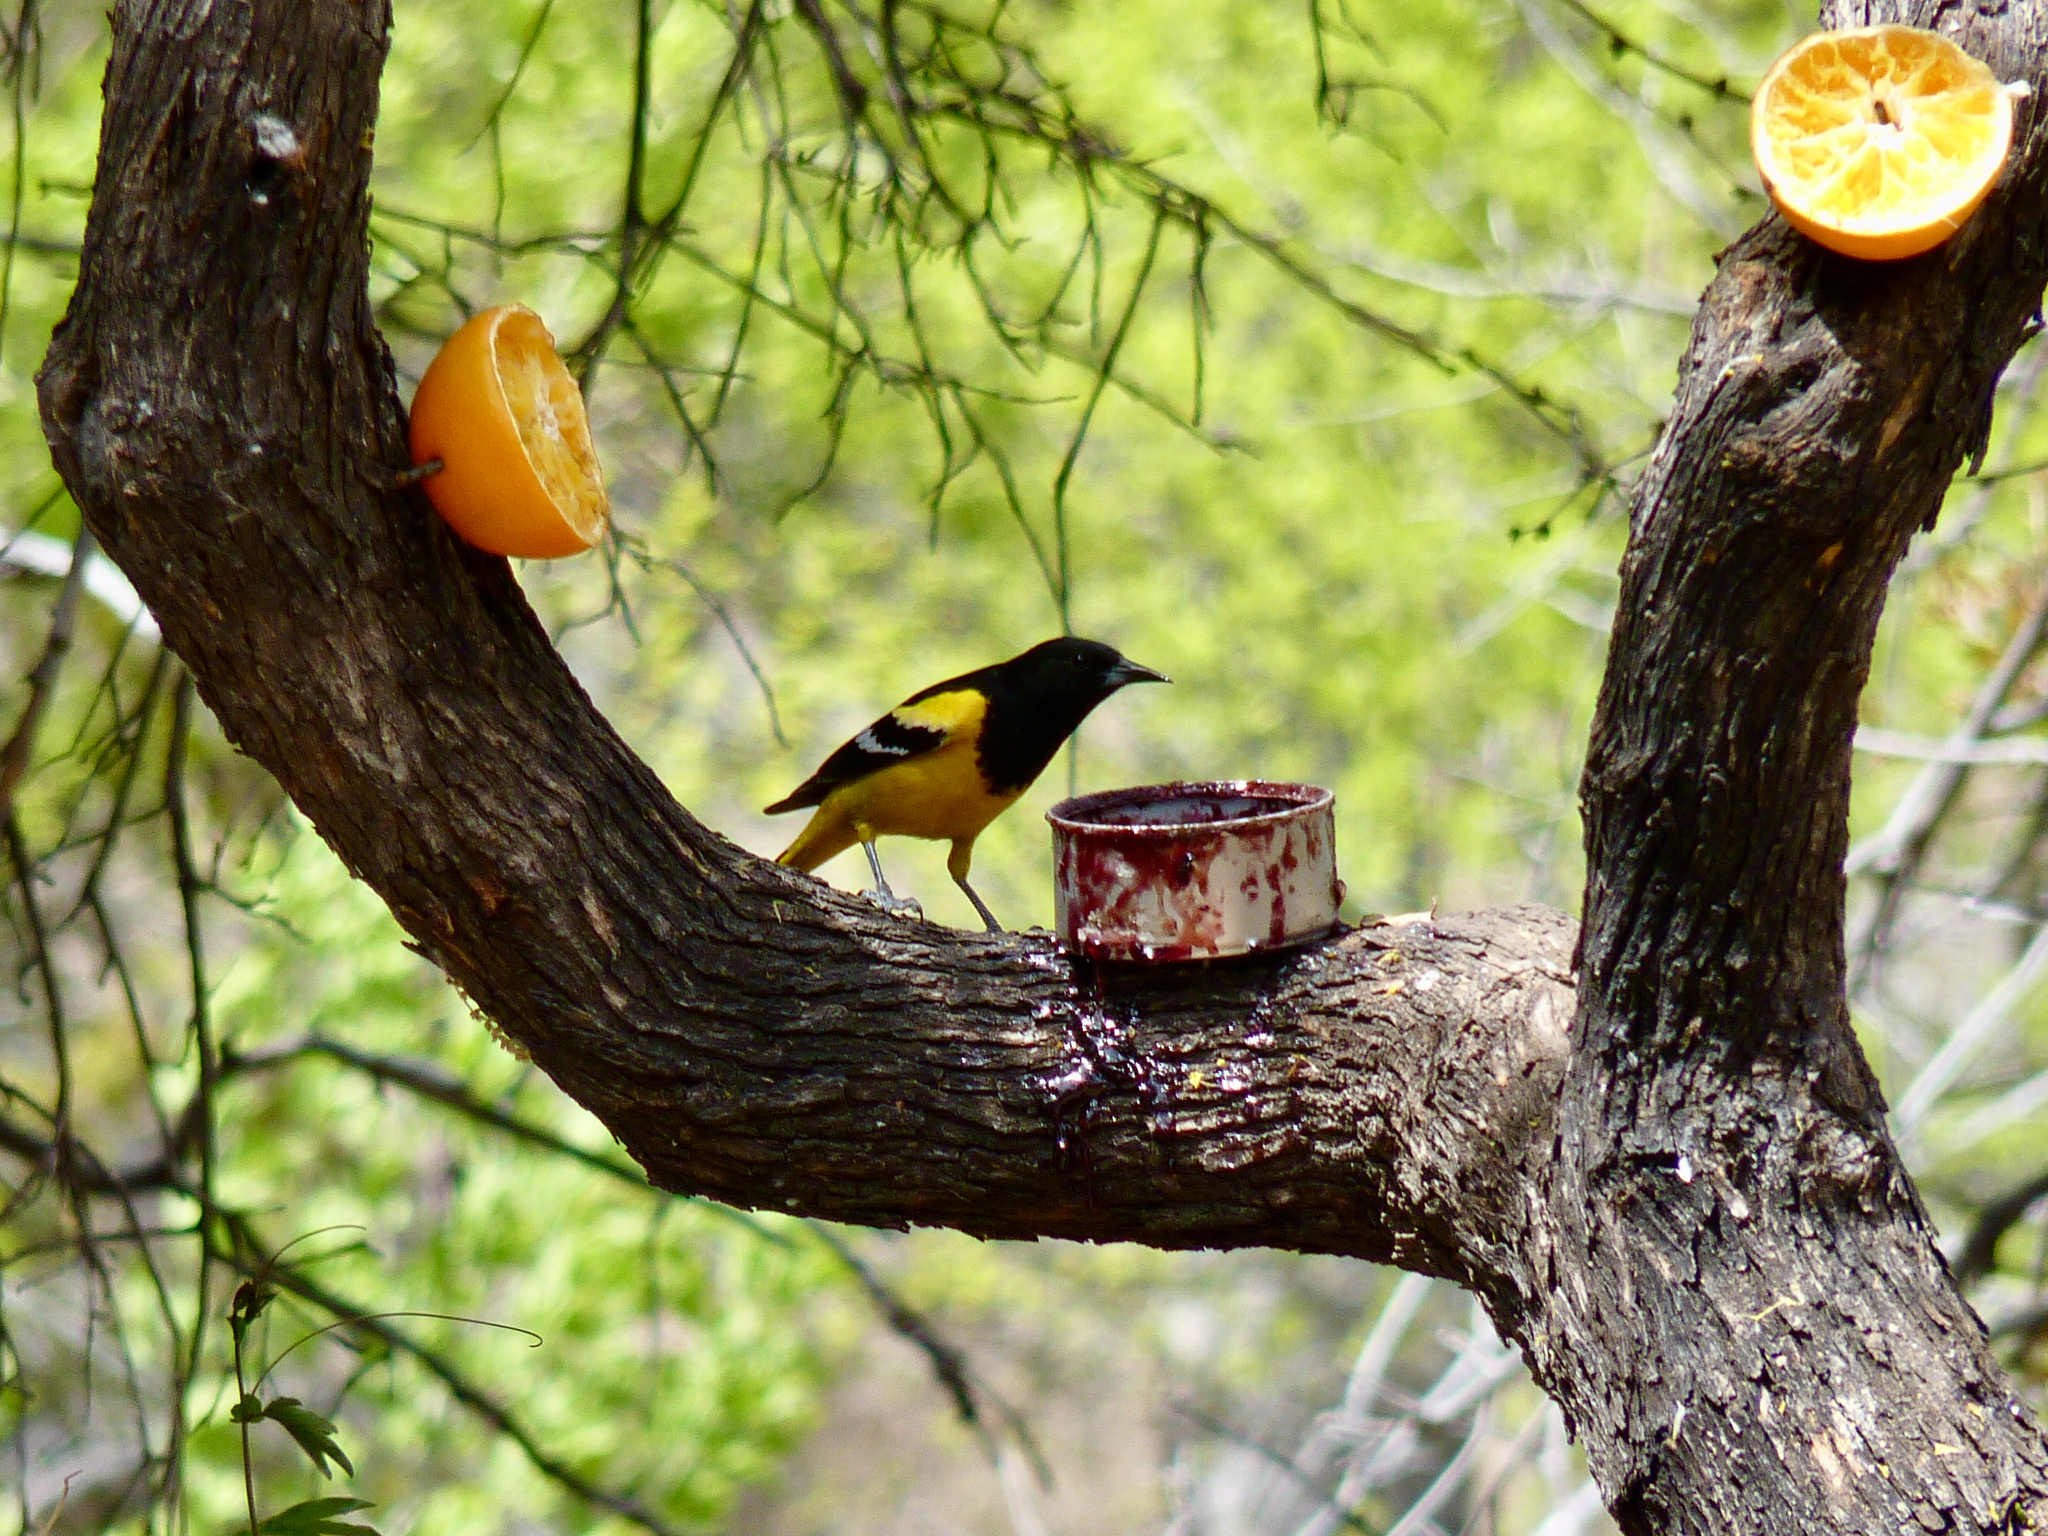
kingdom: Animalia
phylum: Chordata
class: Aves
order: Passeriformes
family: Icteridae
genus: Icterus
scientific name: Icterus parisorum
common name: Scott's oriole
